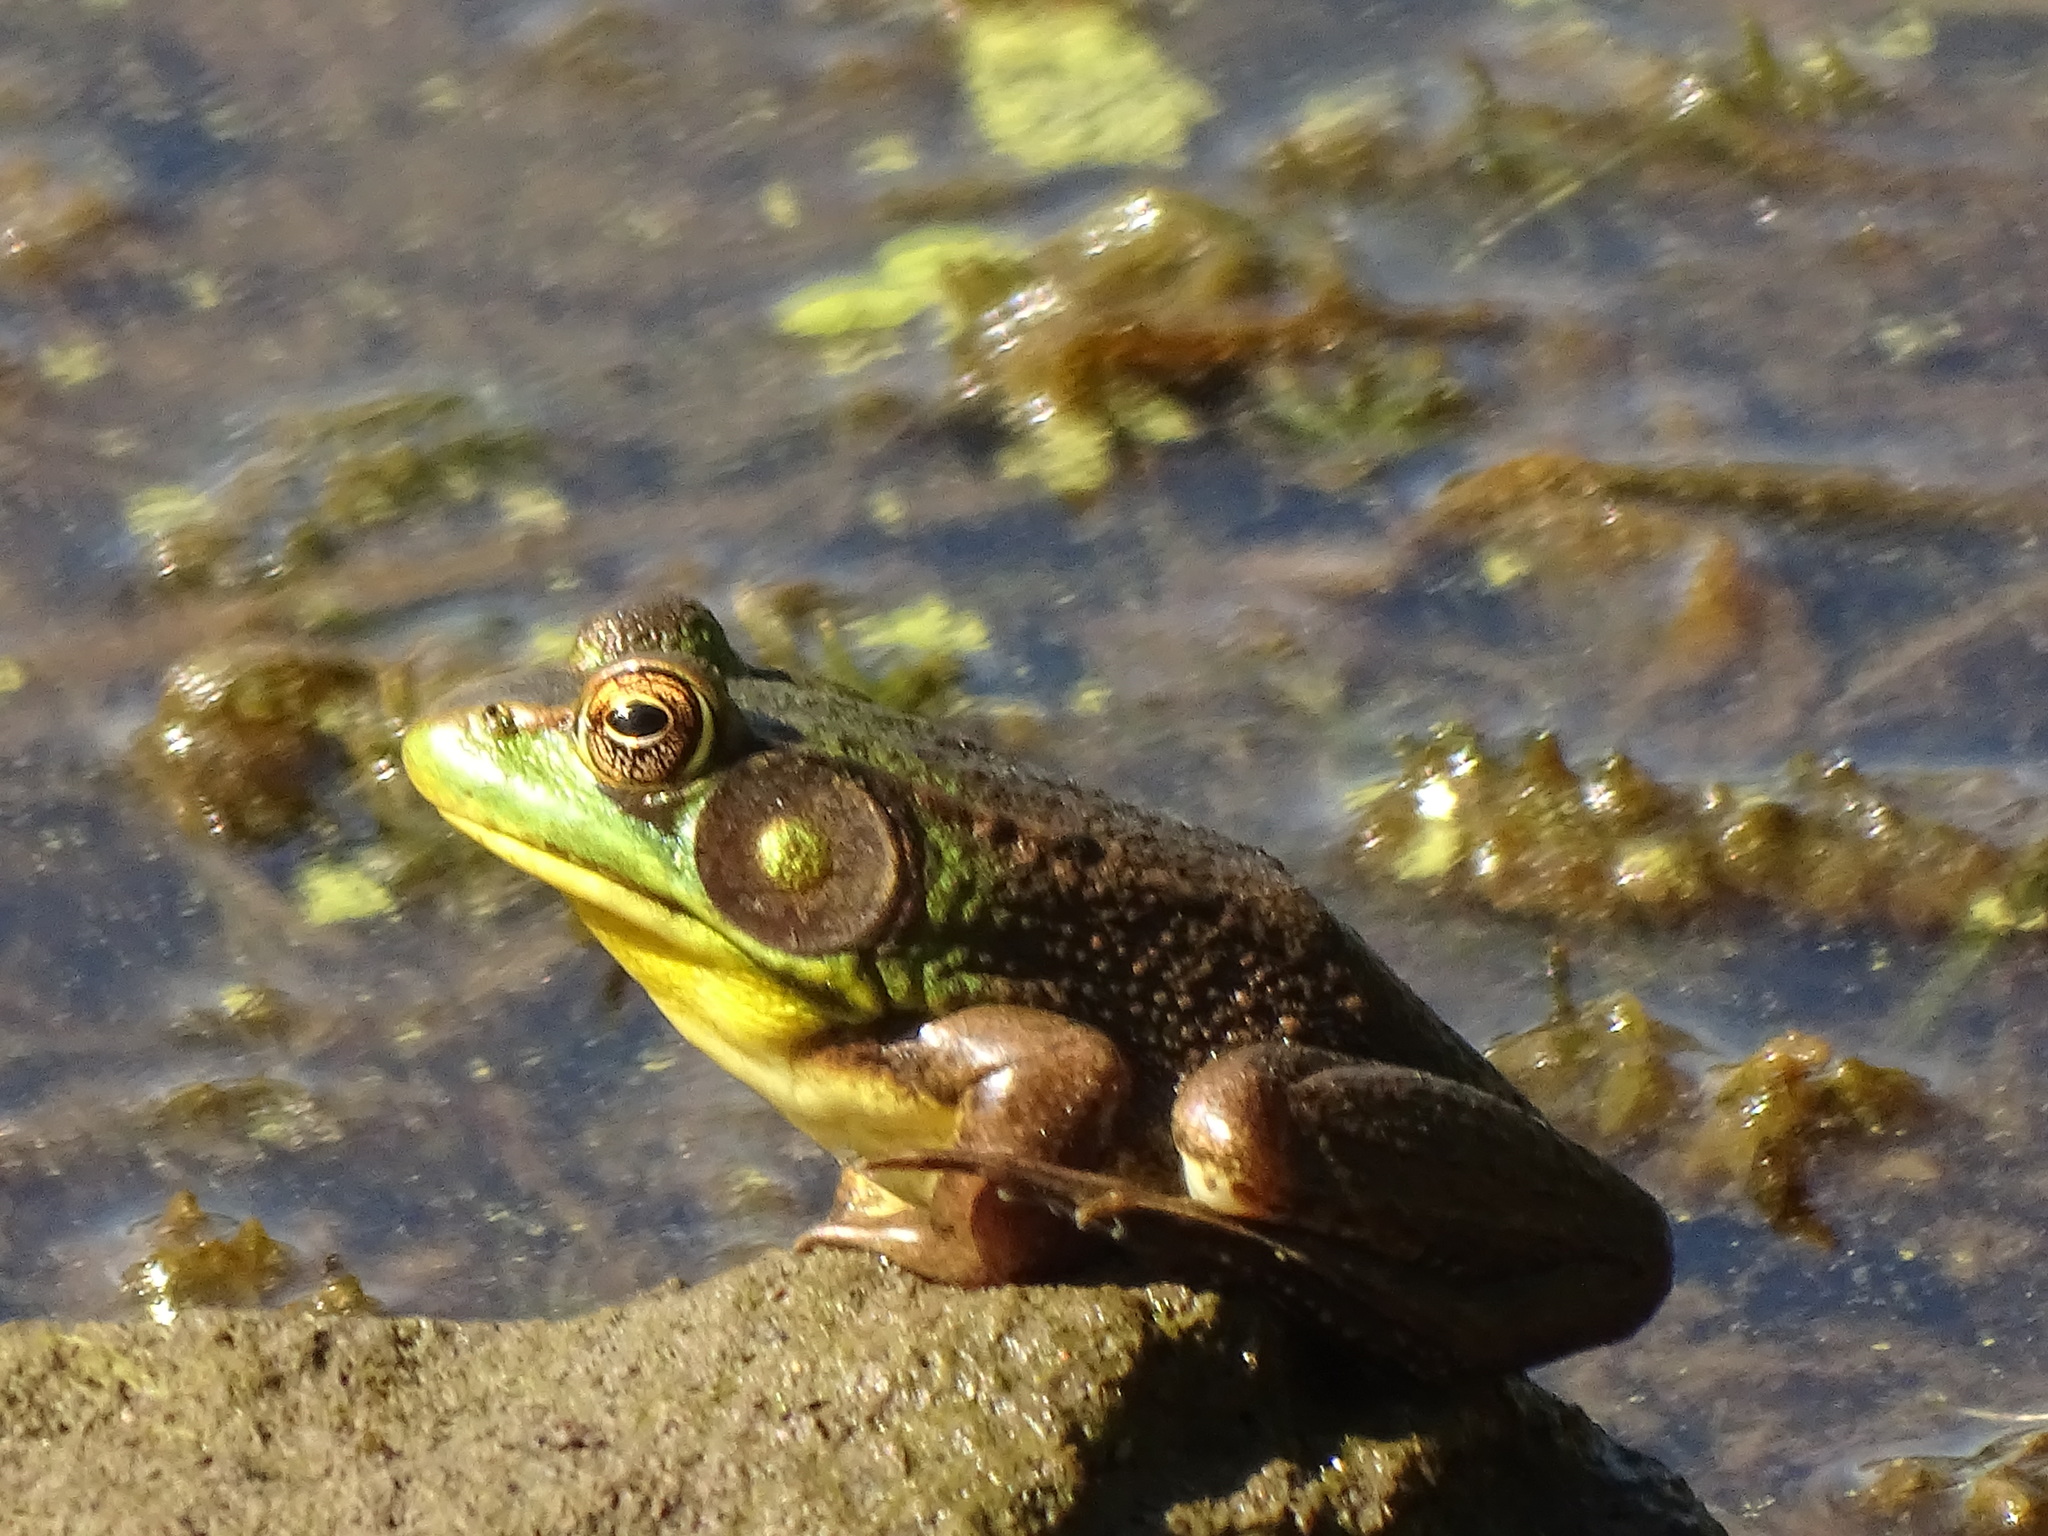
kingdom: Animalia
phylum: Chordata
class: Amphibia
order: Anura
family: Ranidae
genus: Lithobates
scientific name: Lithobates clamitans
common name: Green frog
